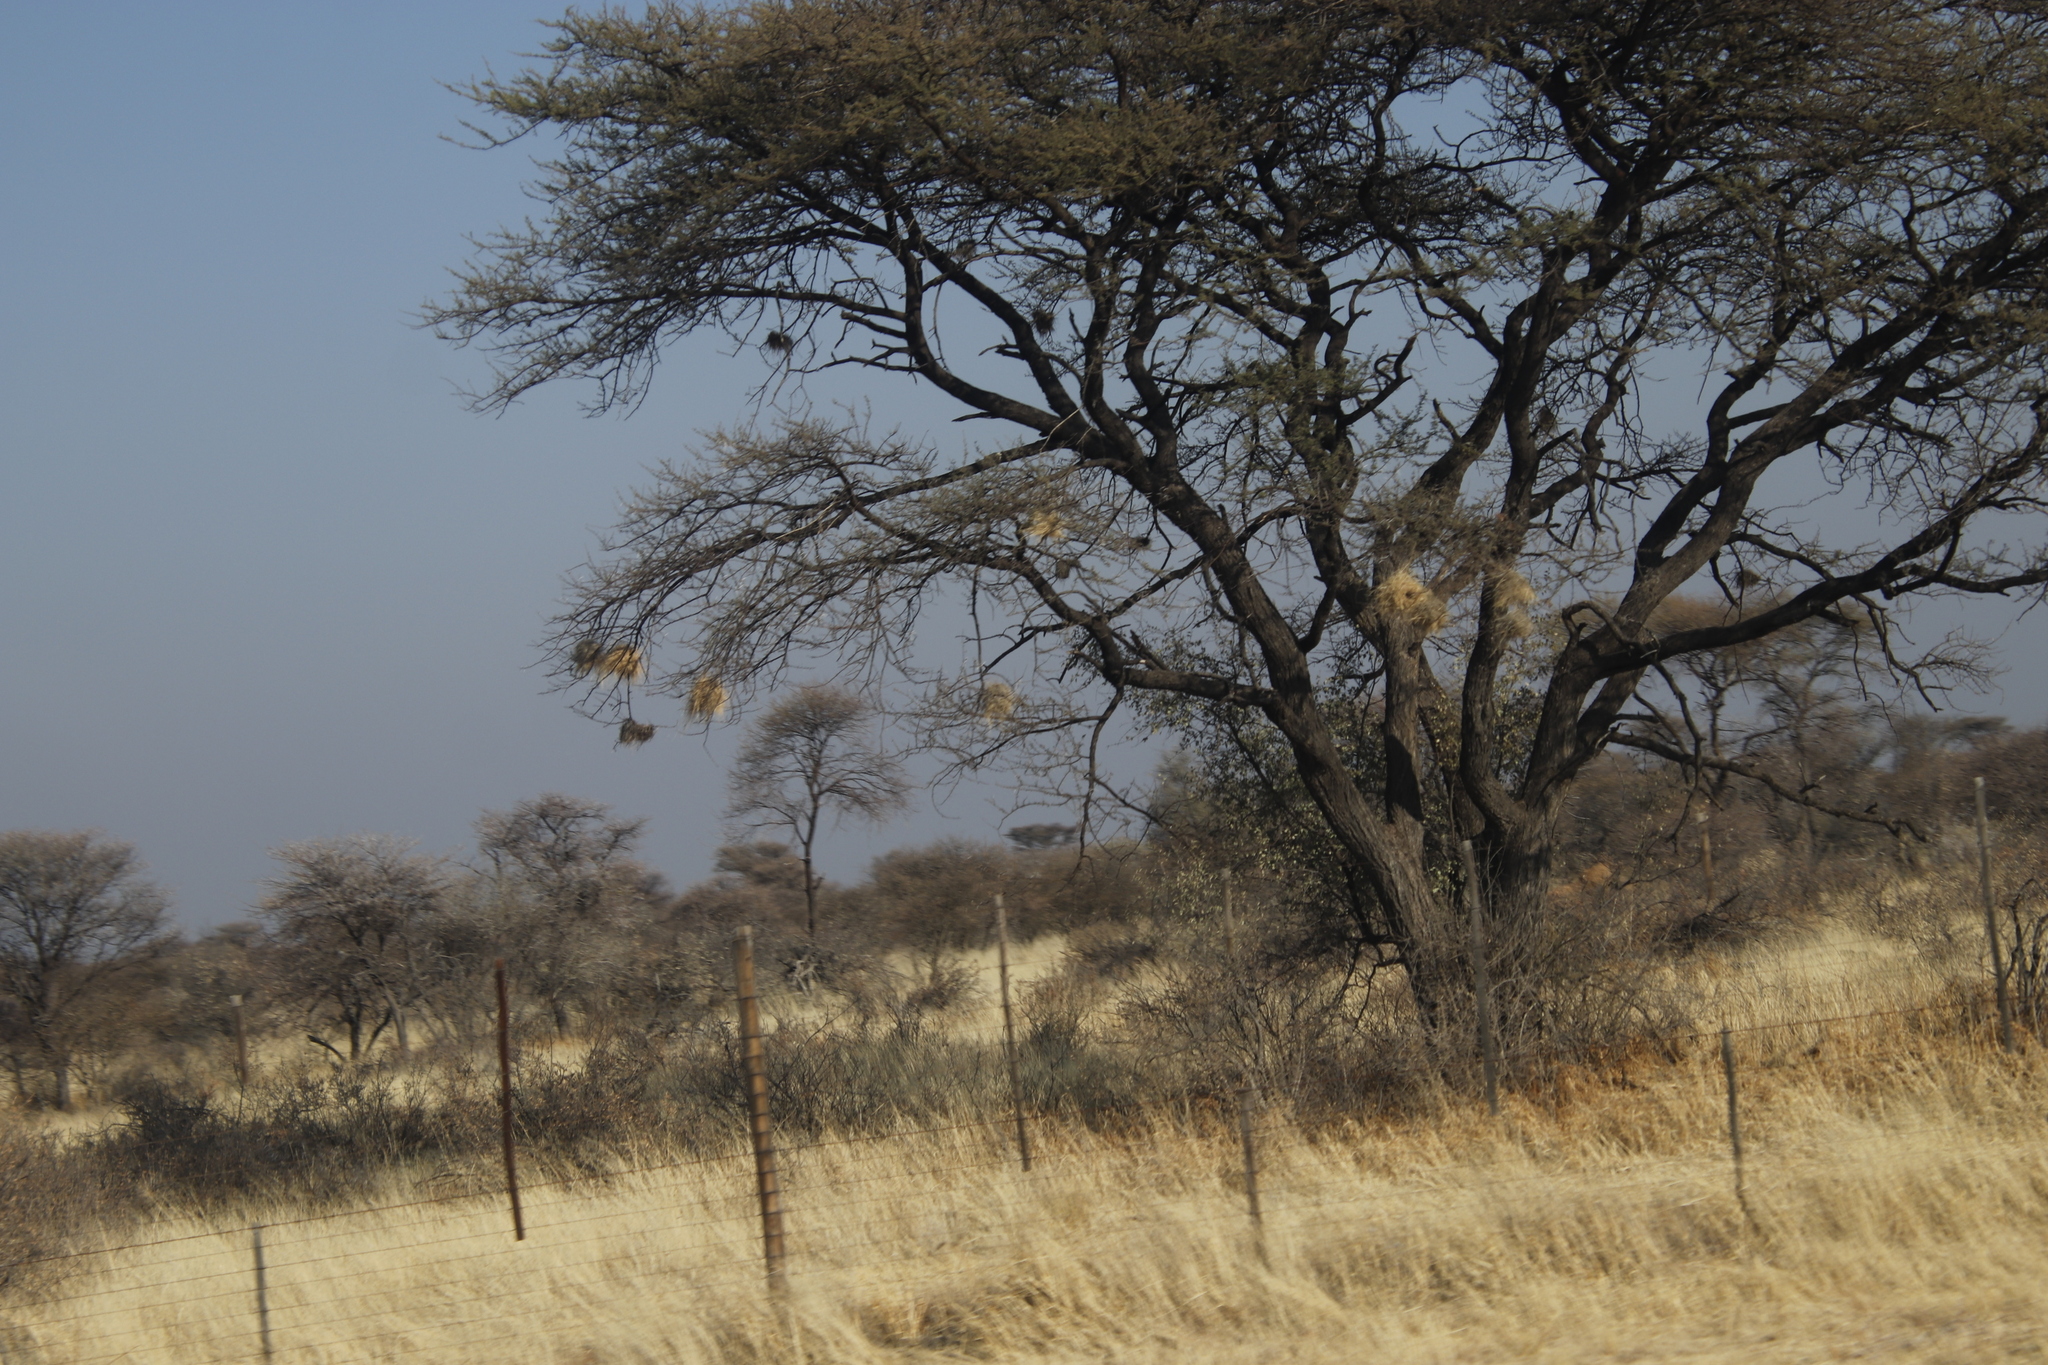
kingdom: Animalia
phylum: Chordata
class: Aves
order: Passeriformes
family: Passeridae
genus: Plocepasser
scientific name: Plocepasser mahali
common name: White-browed sparrow-weaver
